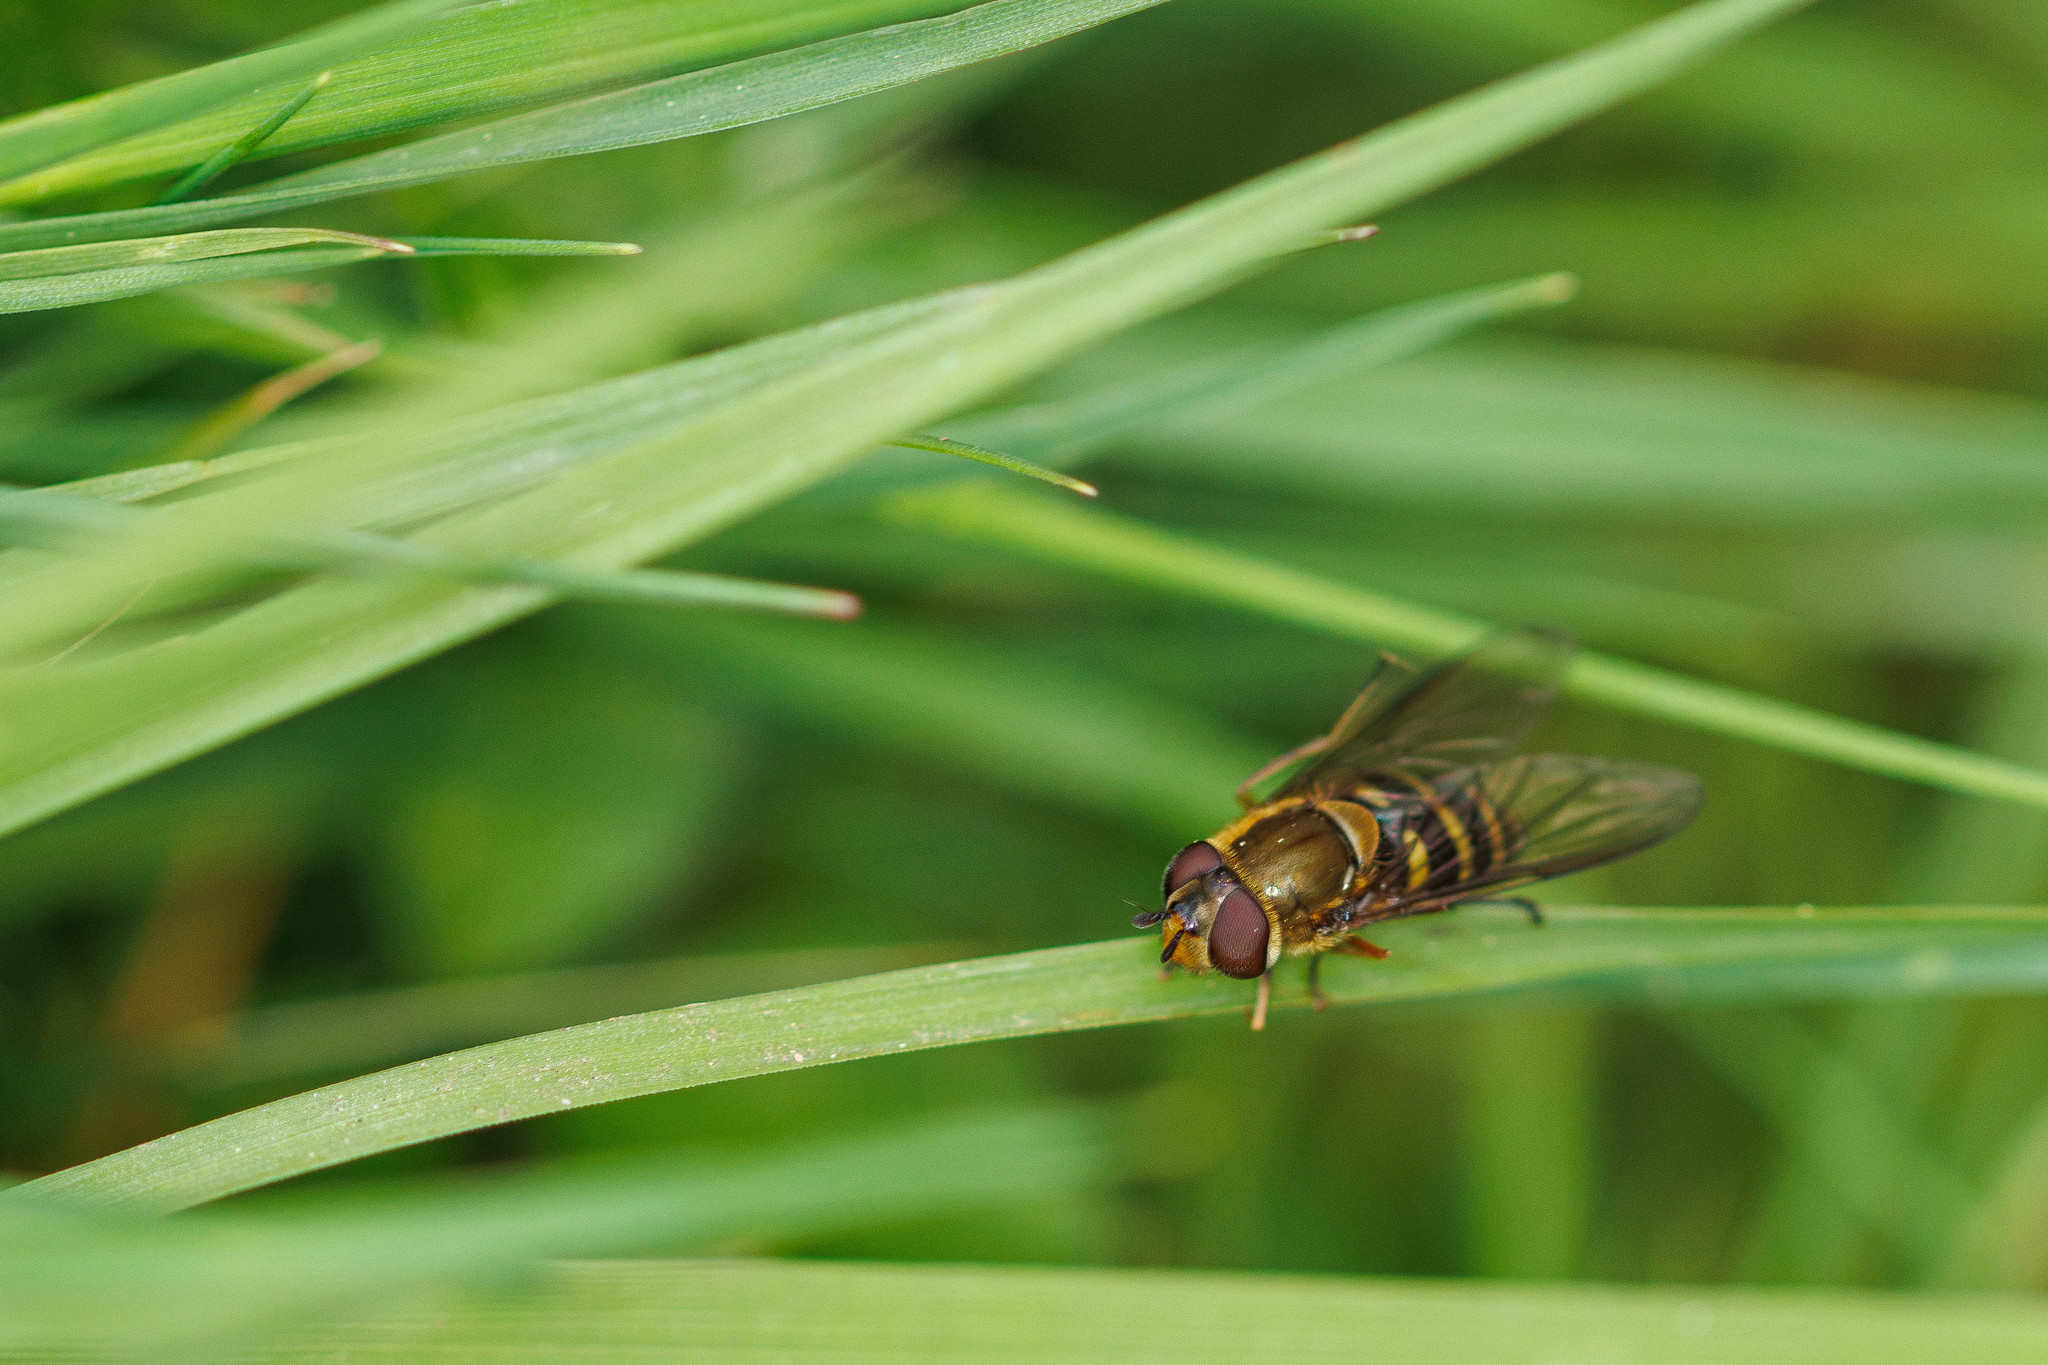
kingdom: Animalia
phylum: Arthropoda
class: Insecta
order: Diptera
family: Syrphidae
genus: Syrphus
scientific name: Syrphus torvus
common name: Hairy-eyed flower fly
